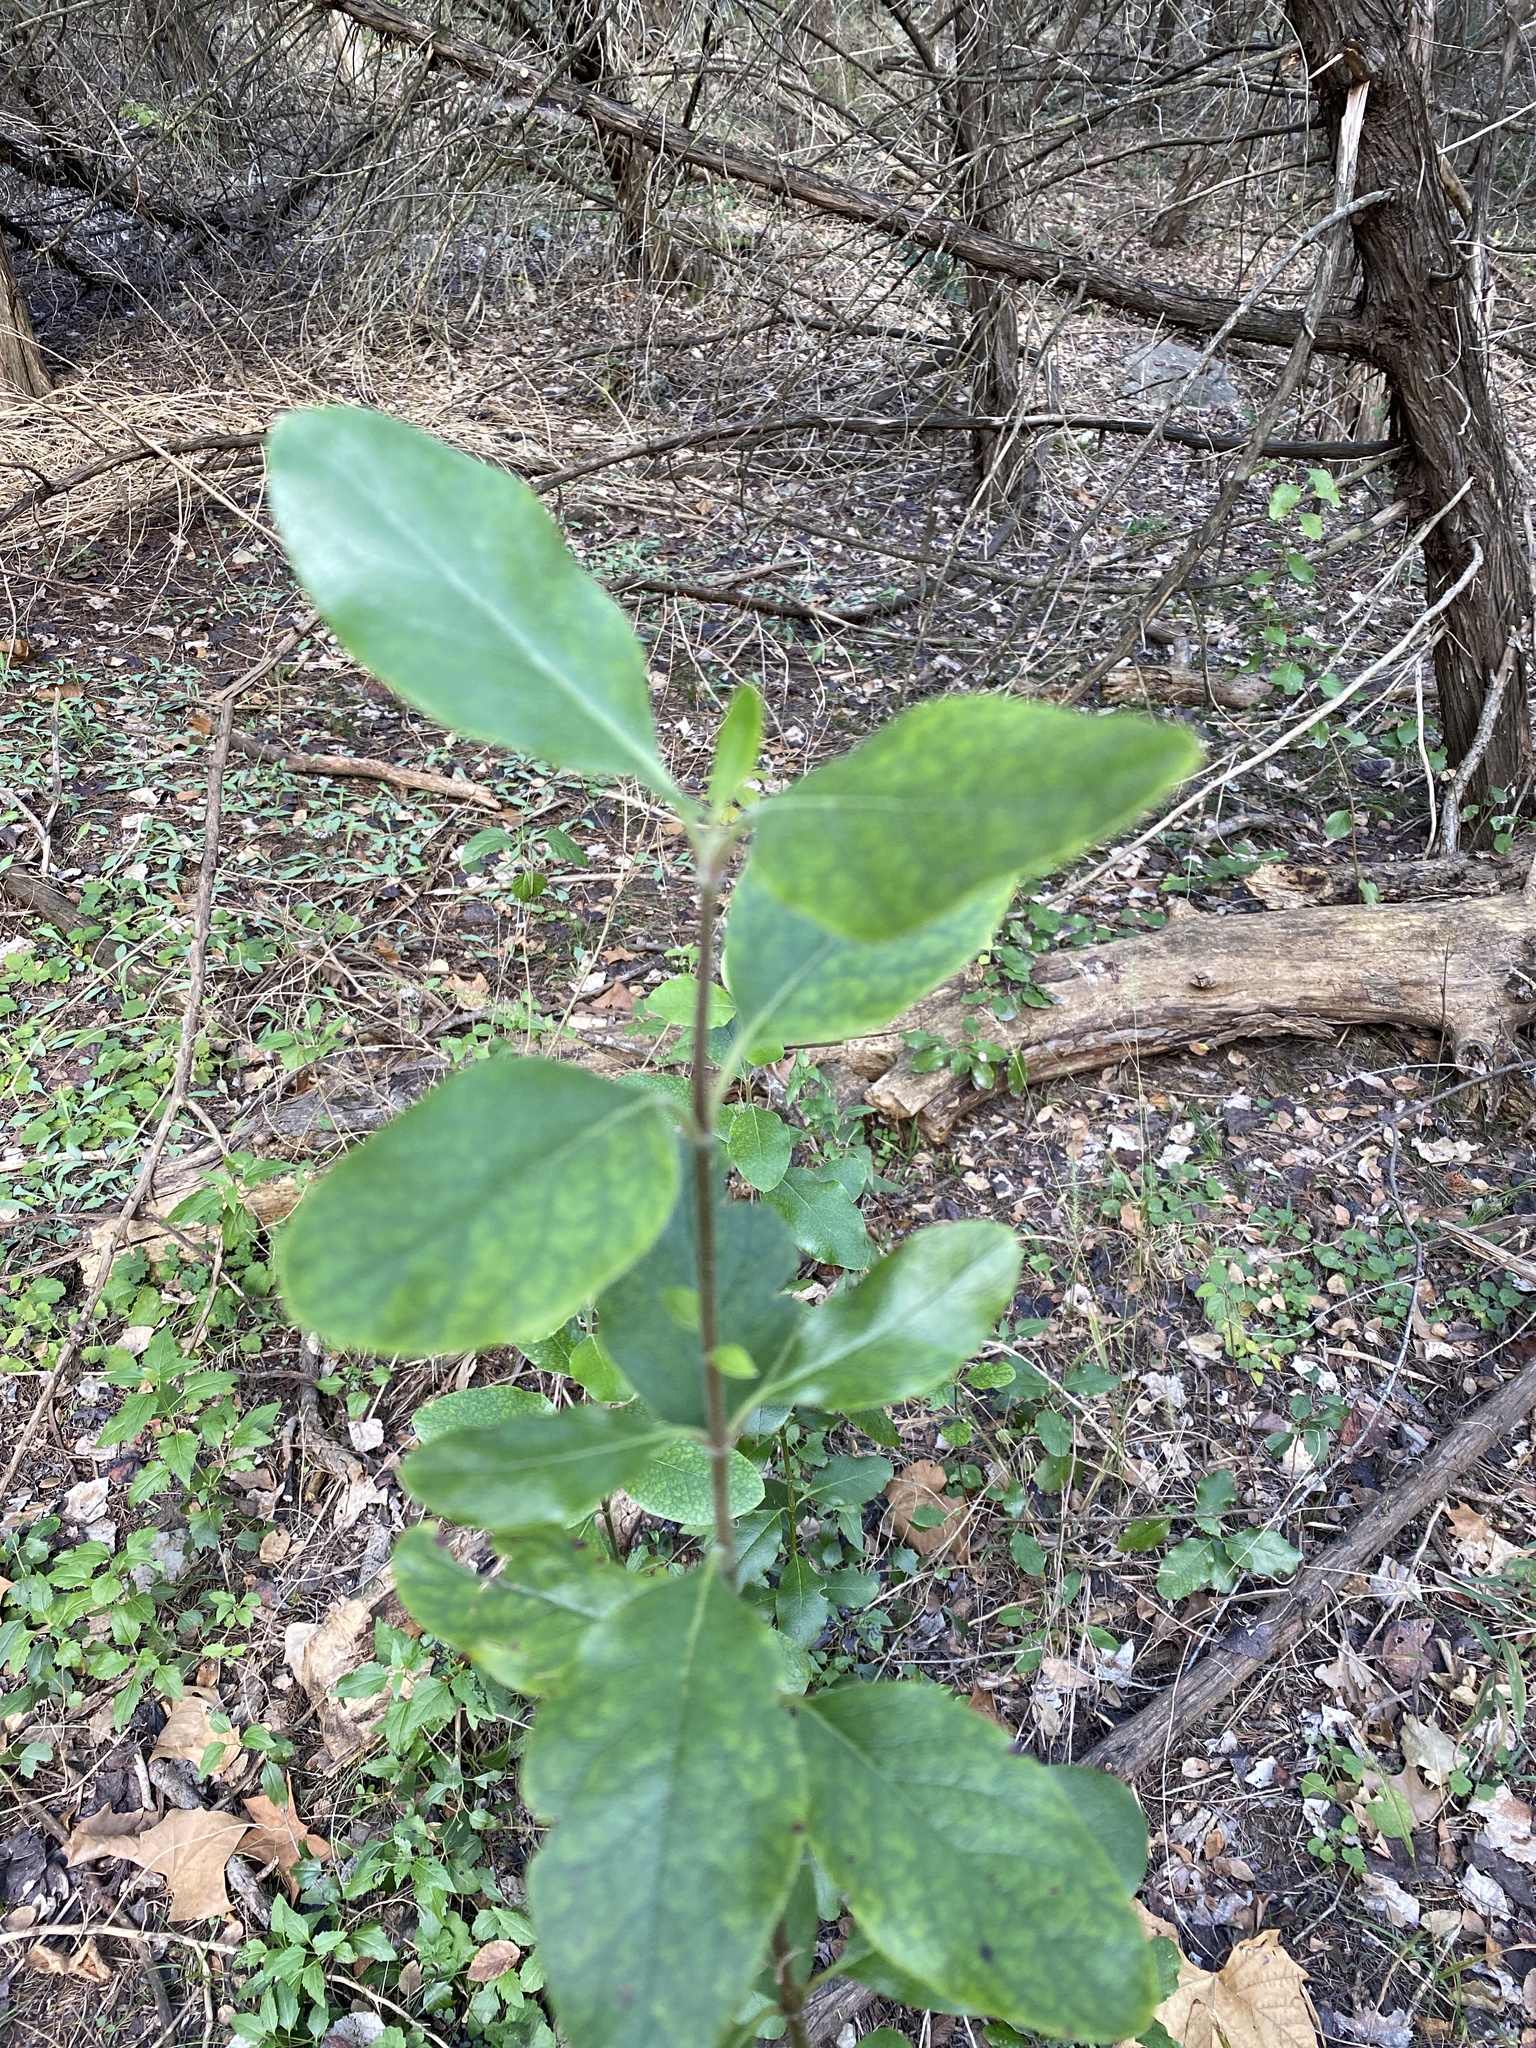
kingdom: Plantae
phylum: Tracheophyta
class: Magnoliopsida
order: Garryales
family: Garryaceae
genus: Garrya
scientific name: Garrya lindheimeri
